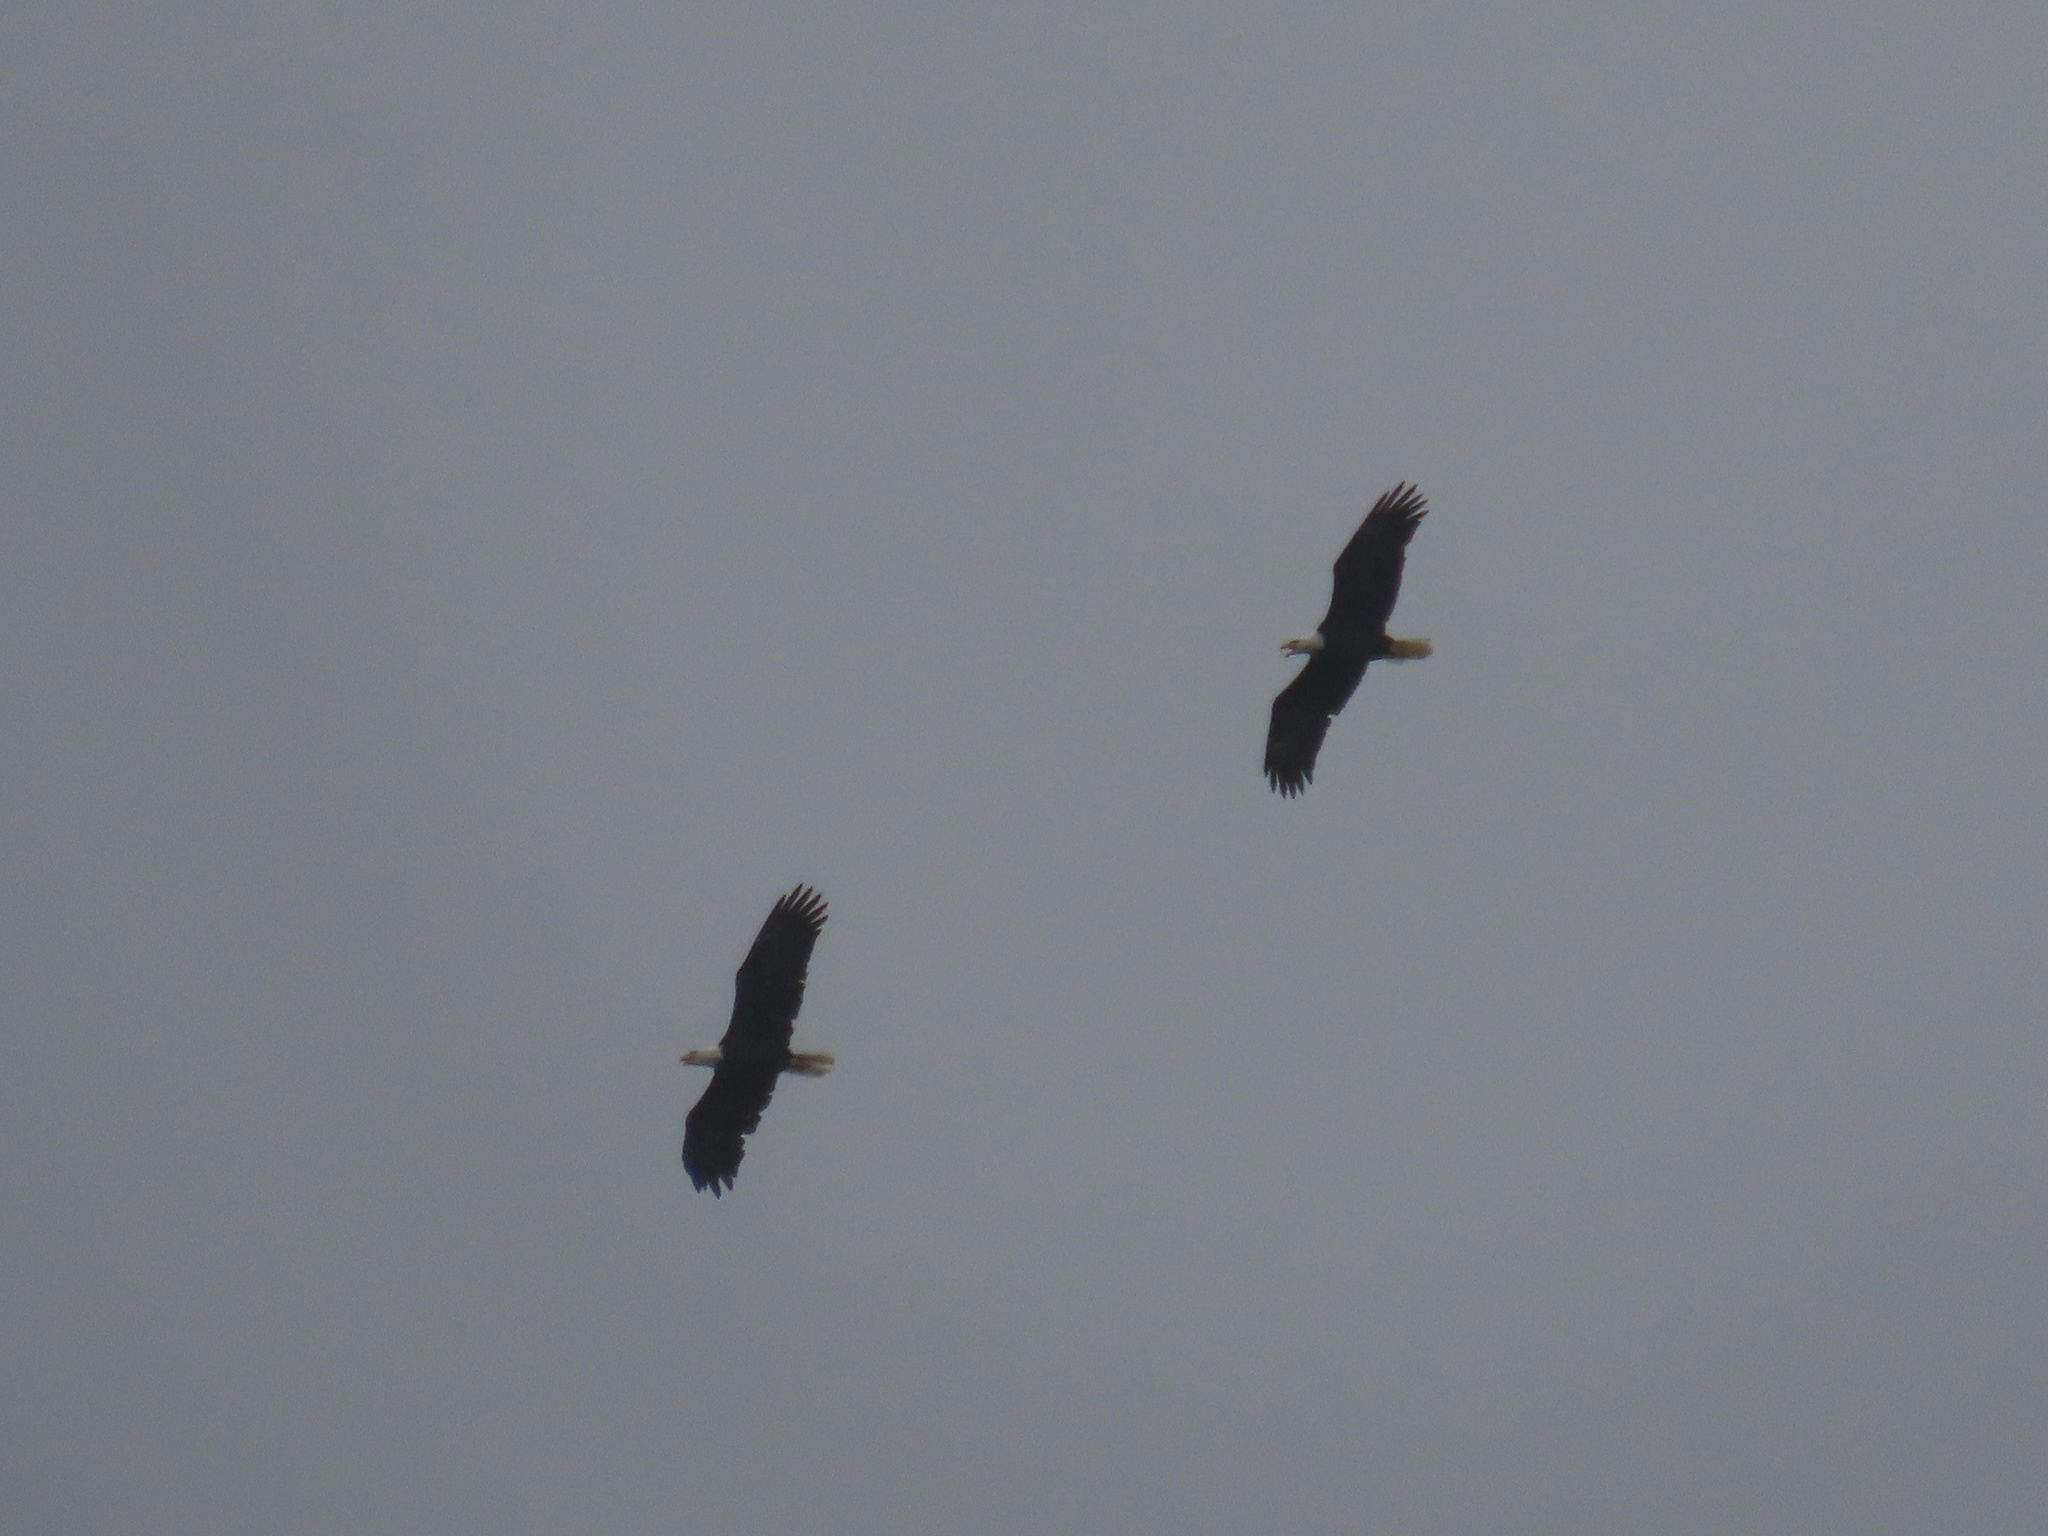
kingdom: Animalia
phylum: Chordata
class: Aves
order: Accipitriformes
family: Accipitridae
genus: Haliaeetus
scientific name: Haliaeetus leucocephalus
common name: Bald eagle
